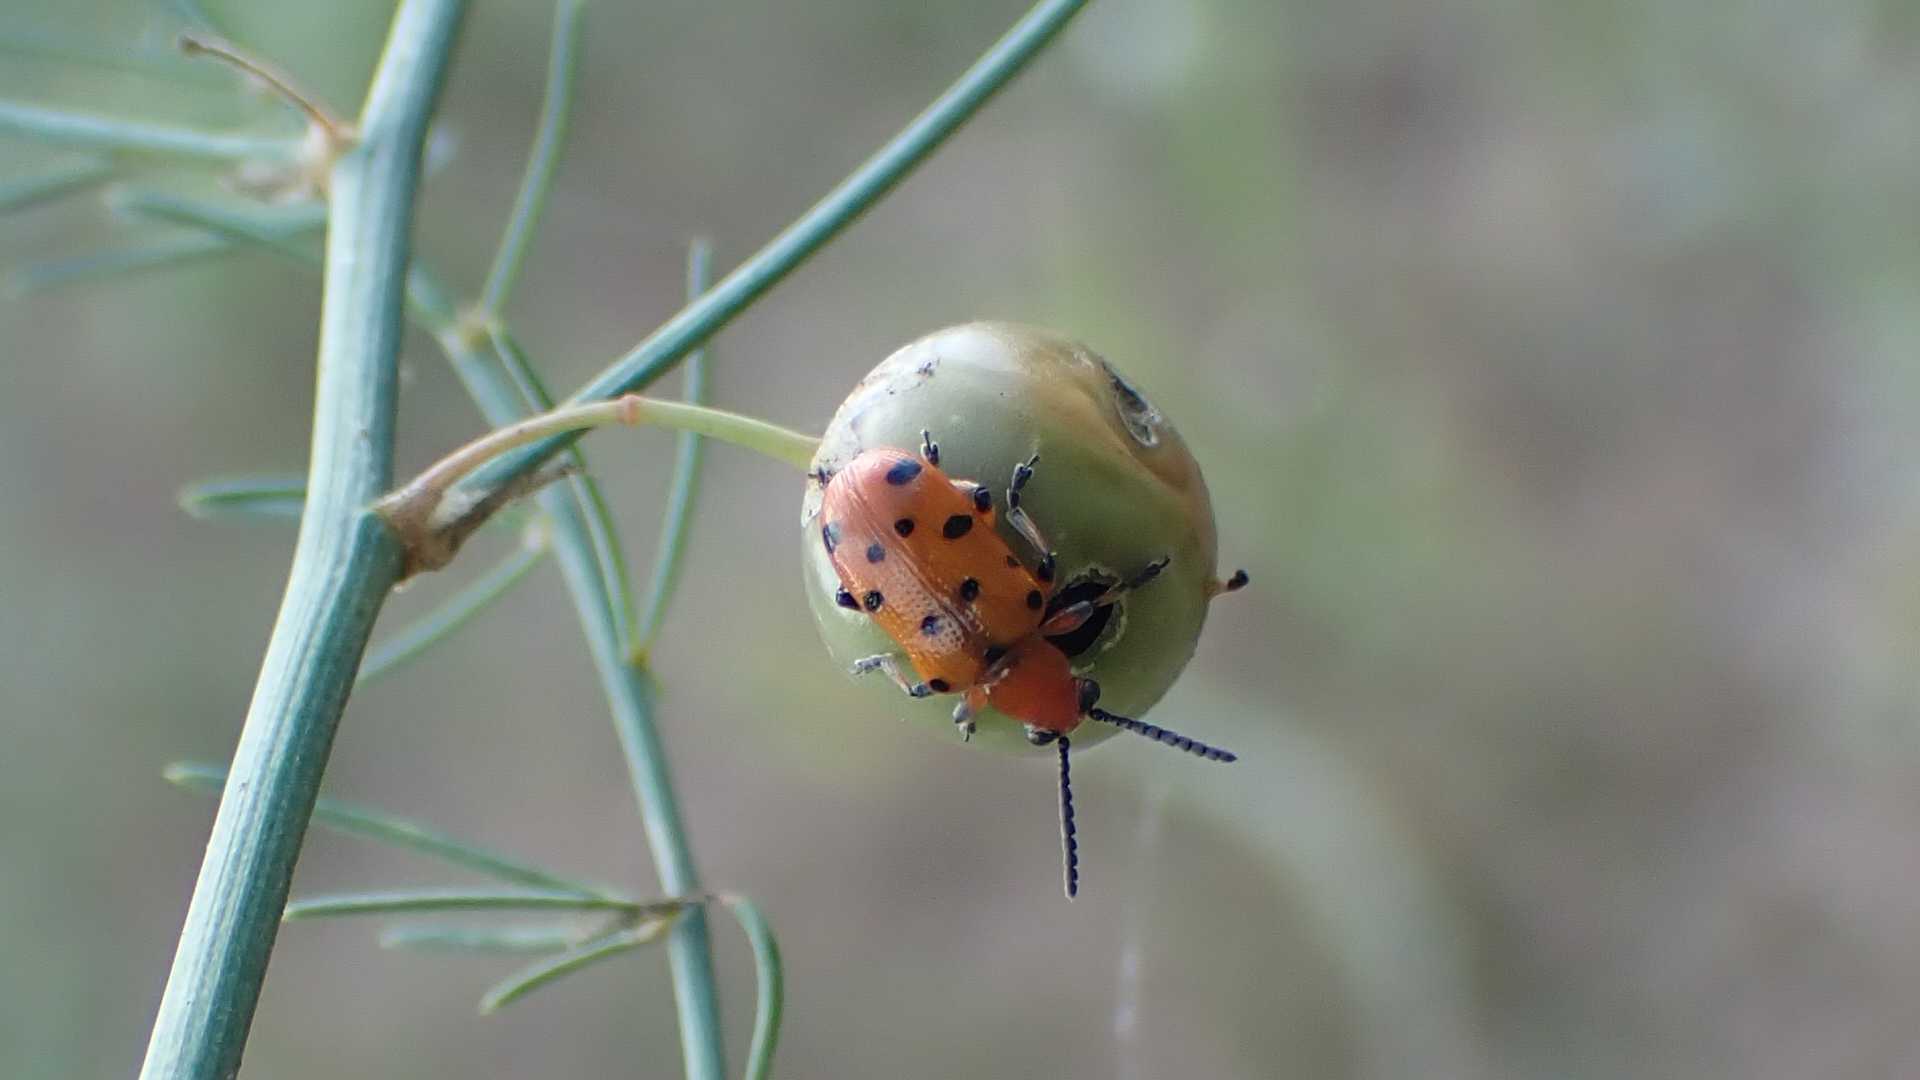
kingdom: Animalia
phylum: Arthropoda
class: Insecta
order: Coleoptera
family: Chrysomelidae
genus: Crioceris
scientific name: Crioceris duodecimpunctata
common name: Twelve-spotted asparagus beetle
